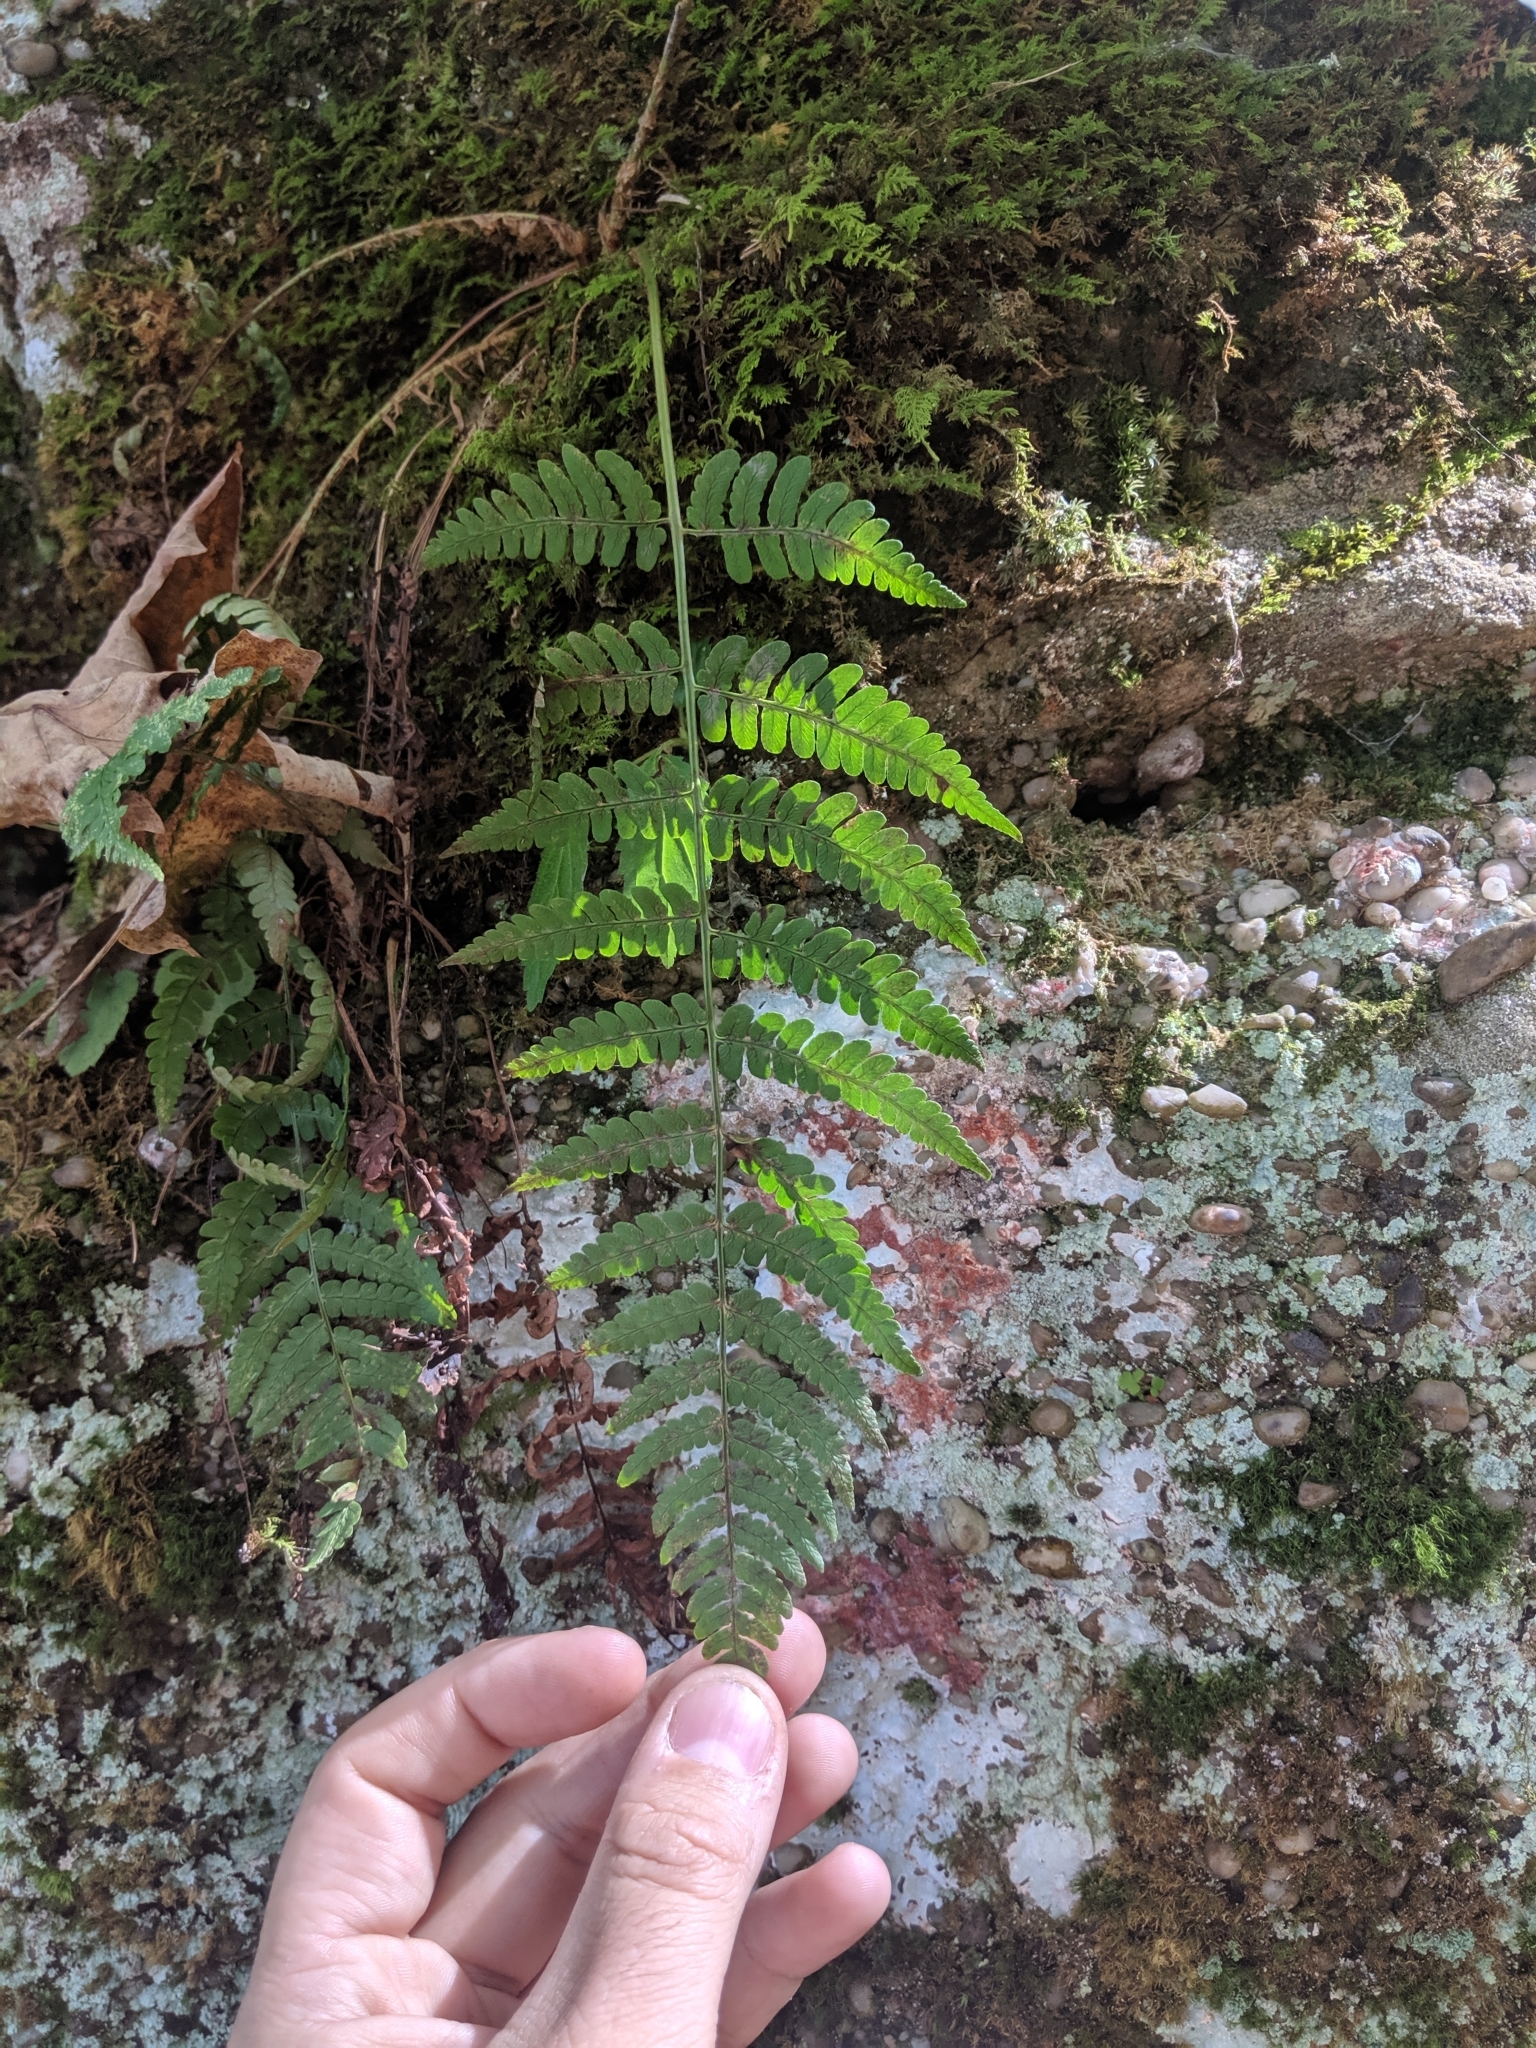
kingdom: Plantae
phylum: Tracheophyta
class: Polypodiopsida
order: Polypodiales
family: Dryopteridaceae
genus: Dryopteris
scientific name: Dryopteris marginalis
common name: Marginal wood fern
